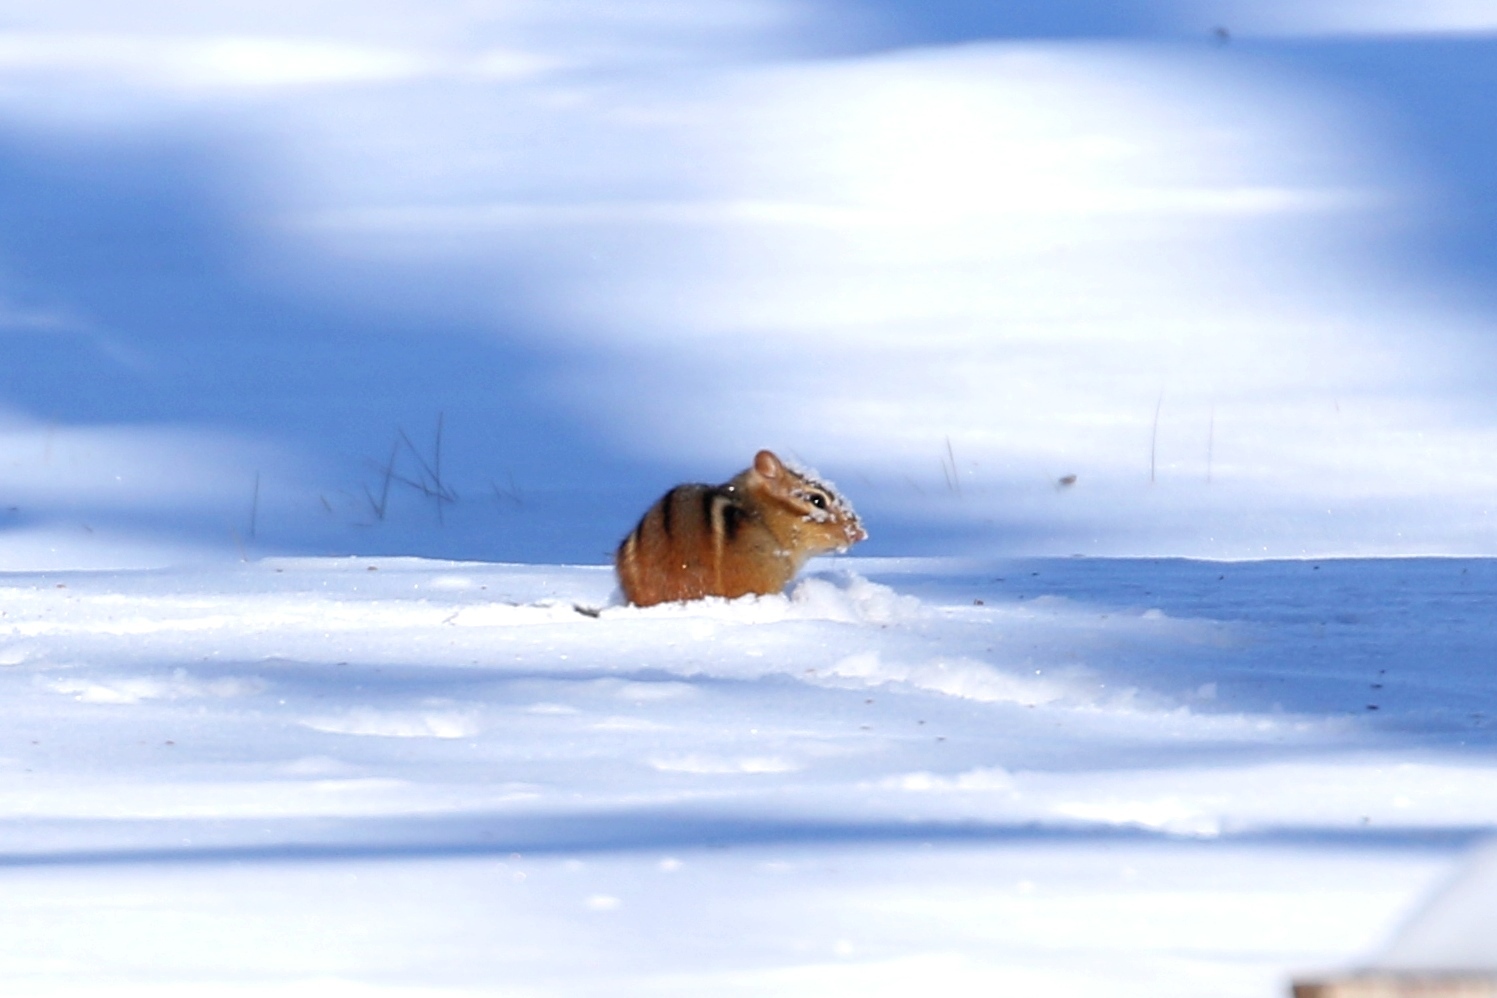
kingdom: Animalia
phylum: Chordata
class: Mammalia
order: Rodentia
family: Sciuridae
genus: Tamias
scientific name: Tamias striatus
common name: Eastern chipmunk
